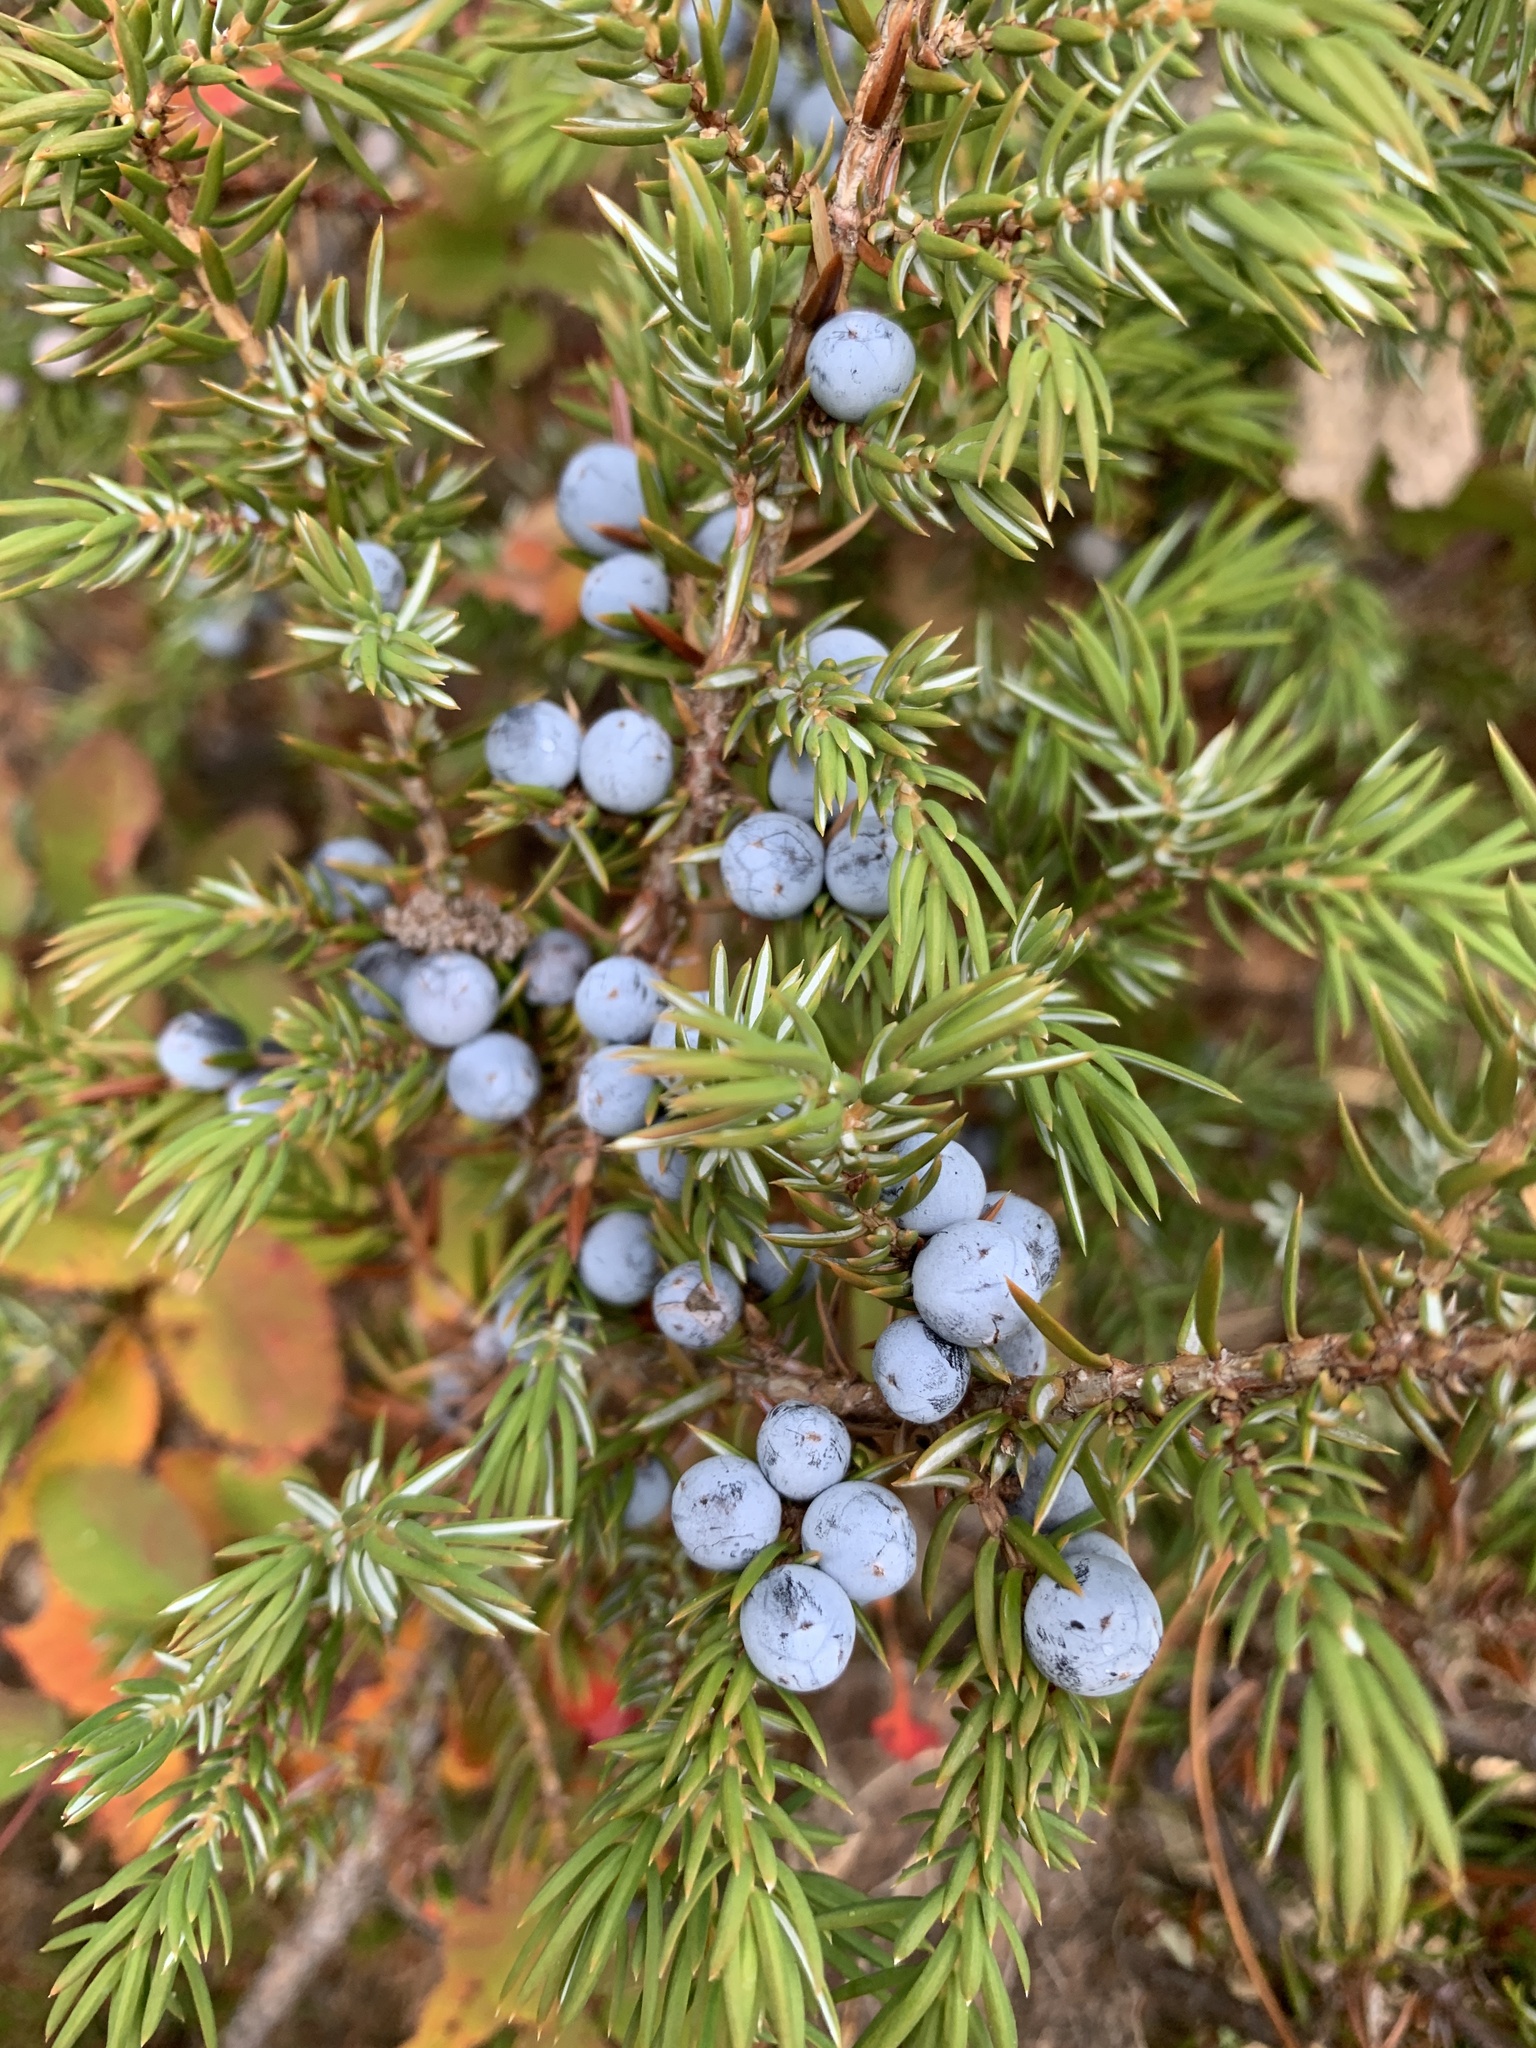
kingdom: Plantae
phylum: Tracheophyta
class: Pinopsida
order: Pinales
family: Cupressaceae
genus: Juniperus
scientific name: Juniperus communis
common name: Common juniper
